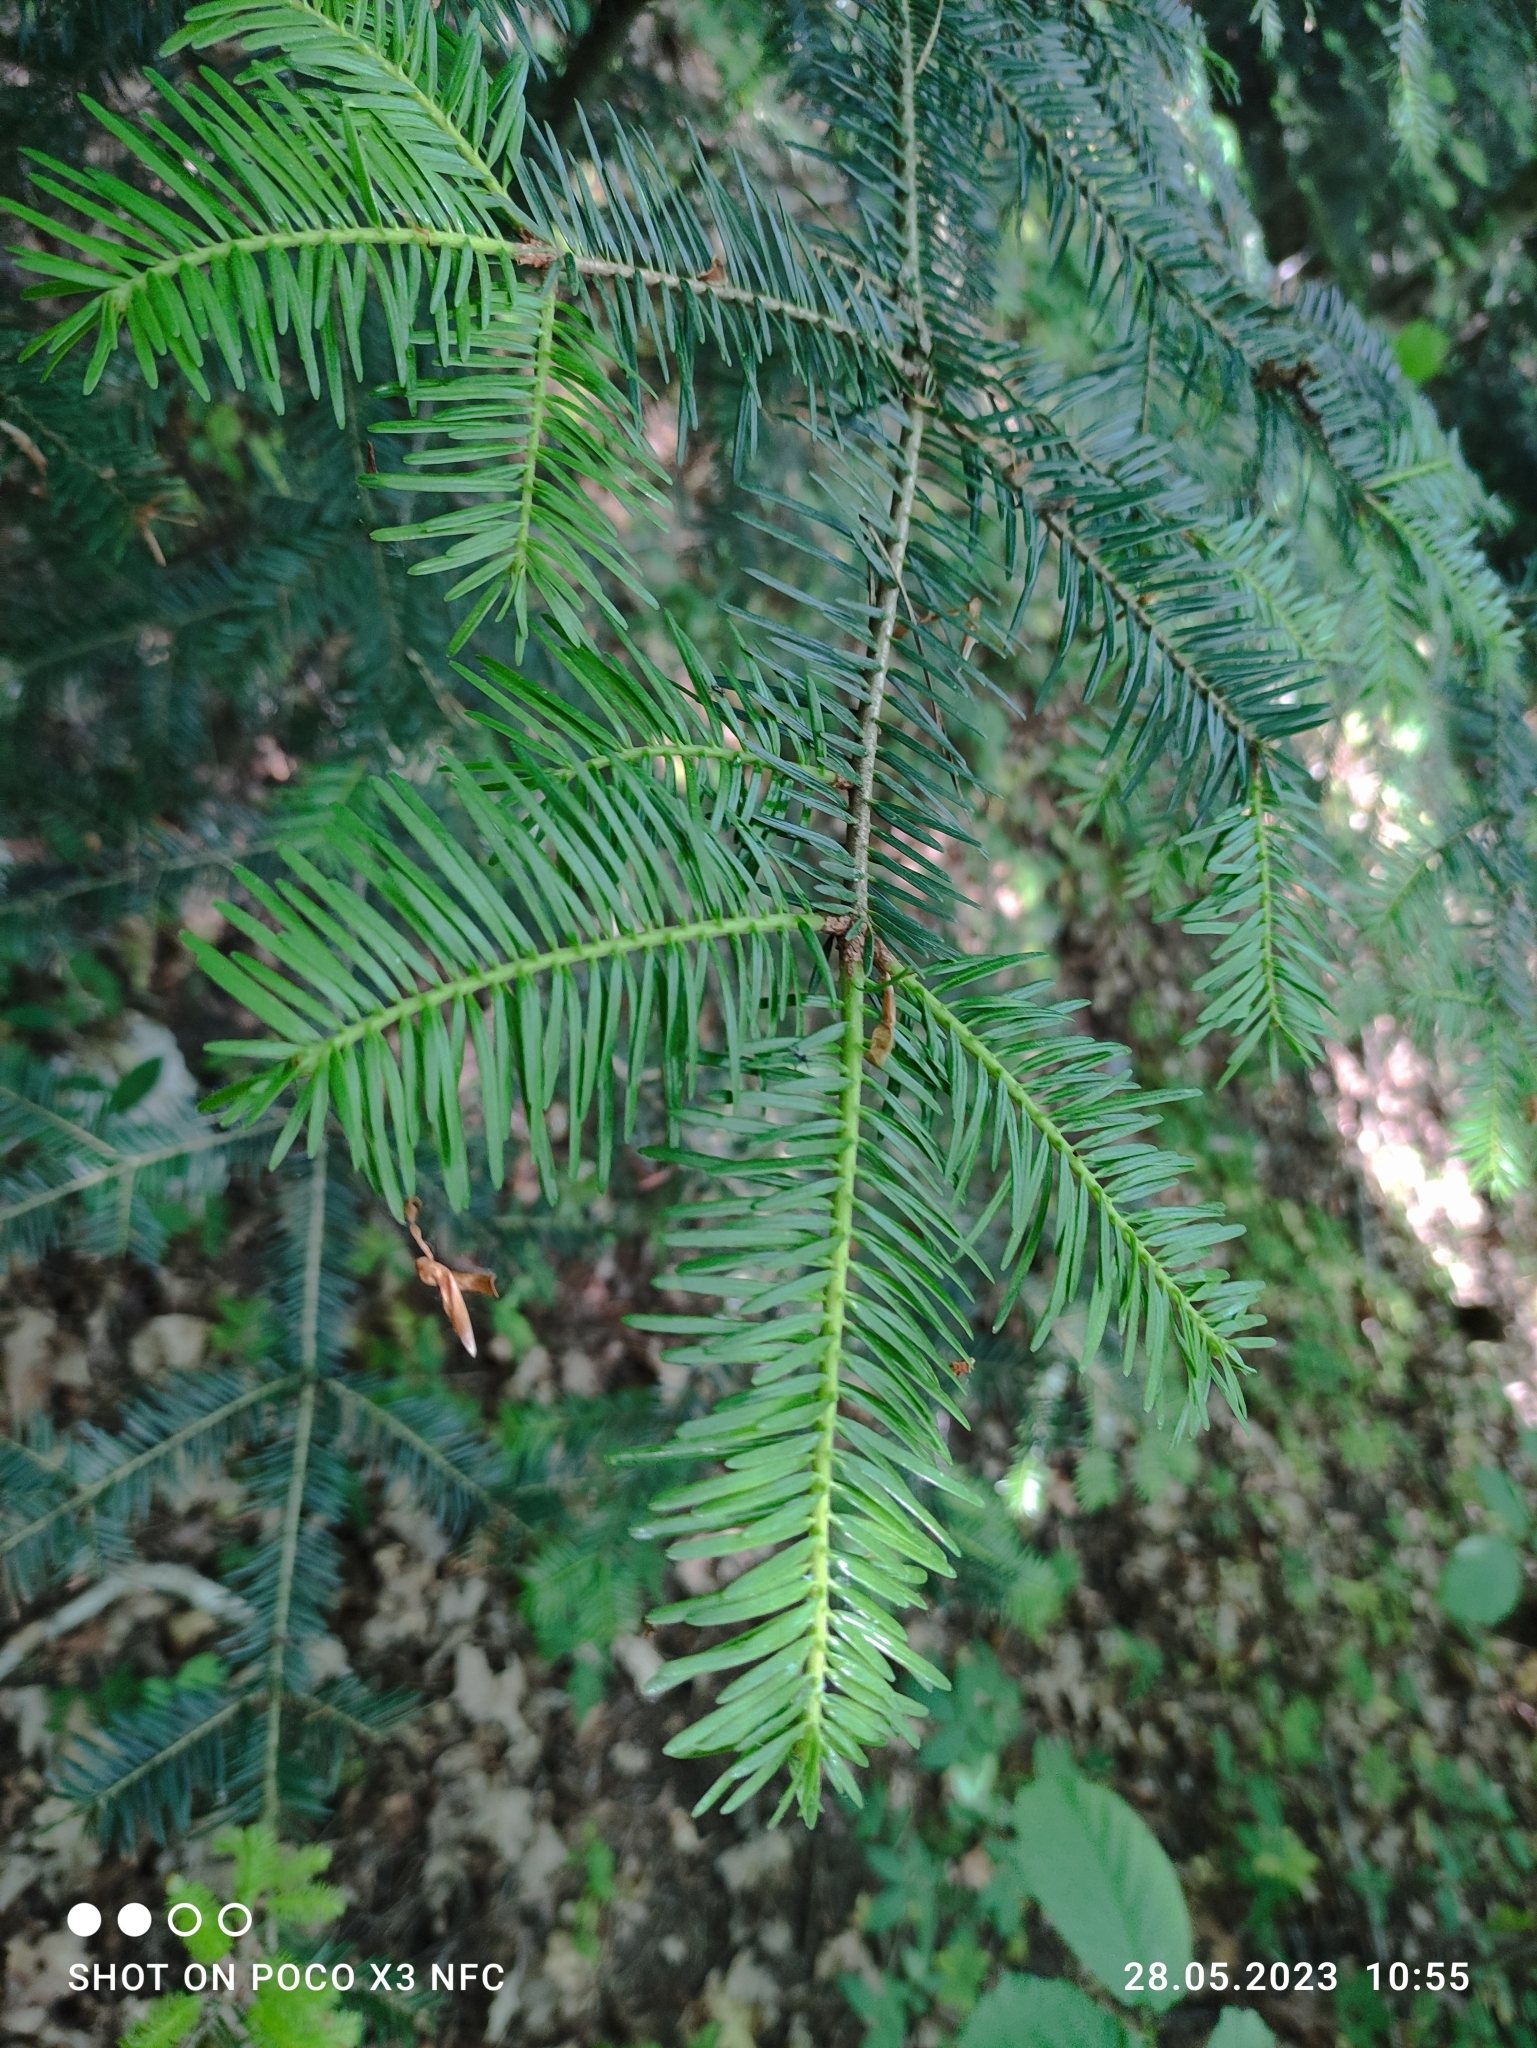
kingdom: Plantae
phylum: Tracheophyta
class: Pinopsida
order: Pinales
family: Pinaceae
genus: Abies
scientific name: Abies alba
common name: Silver fir
